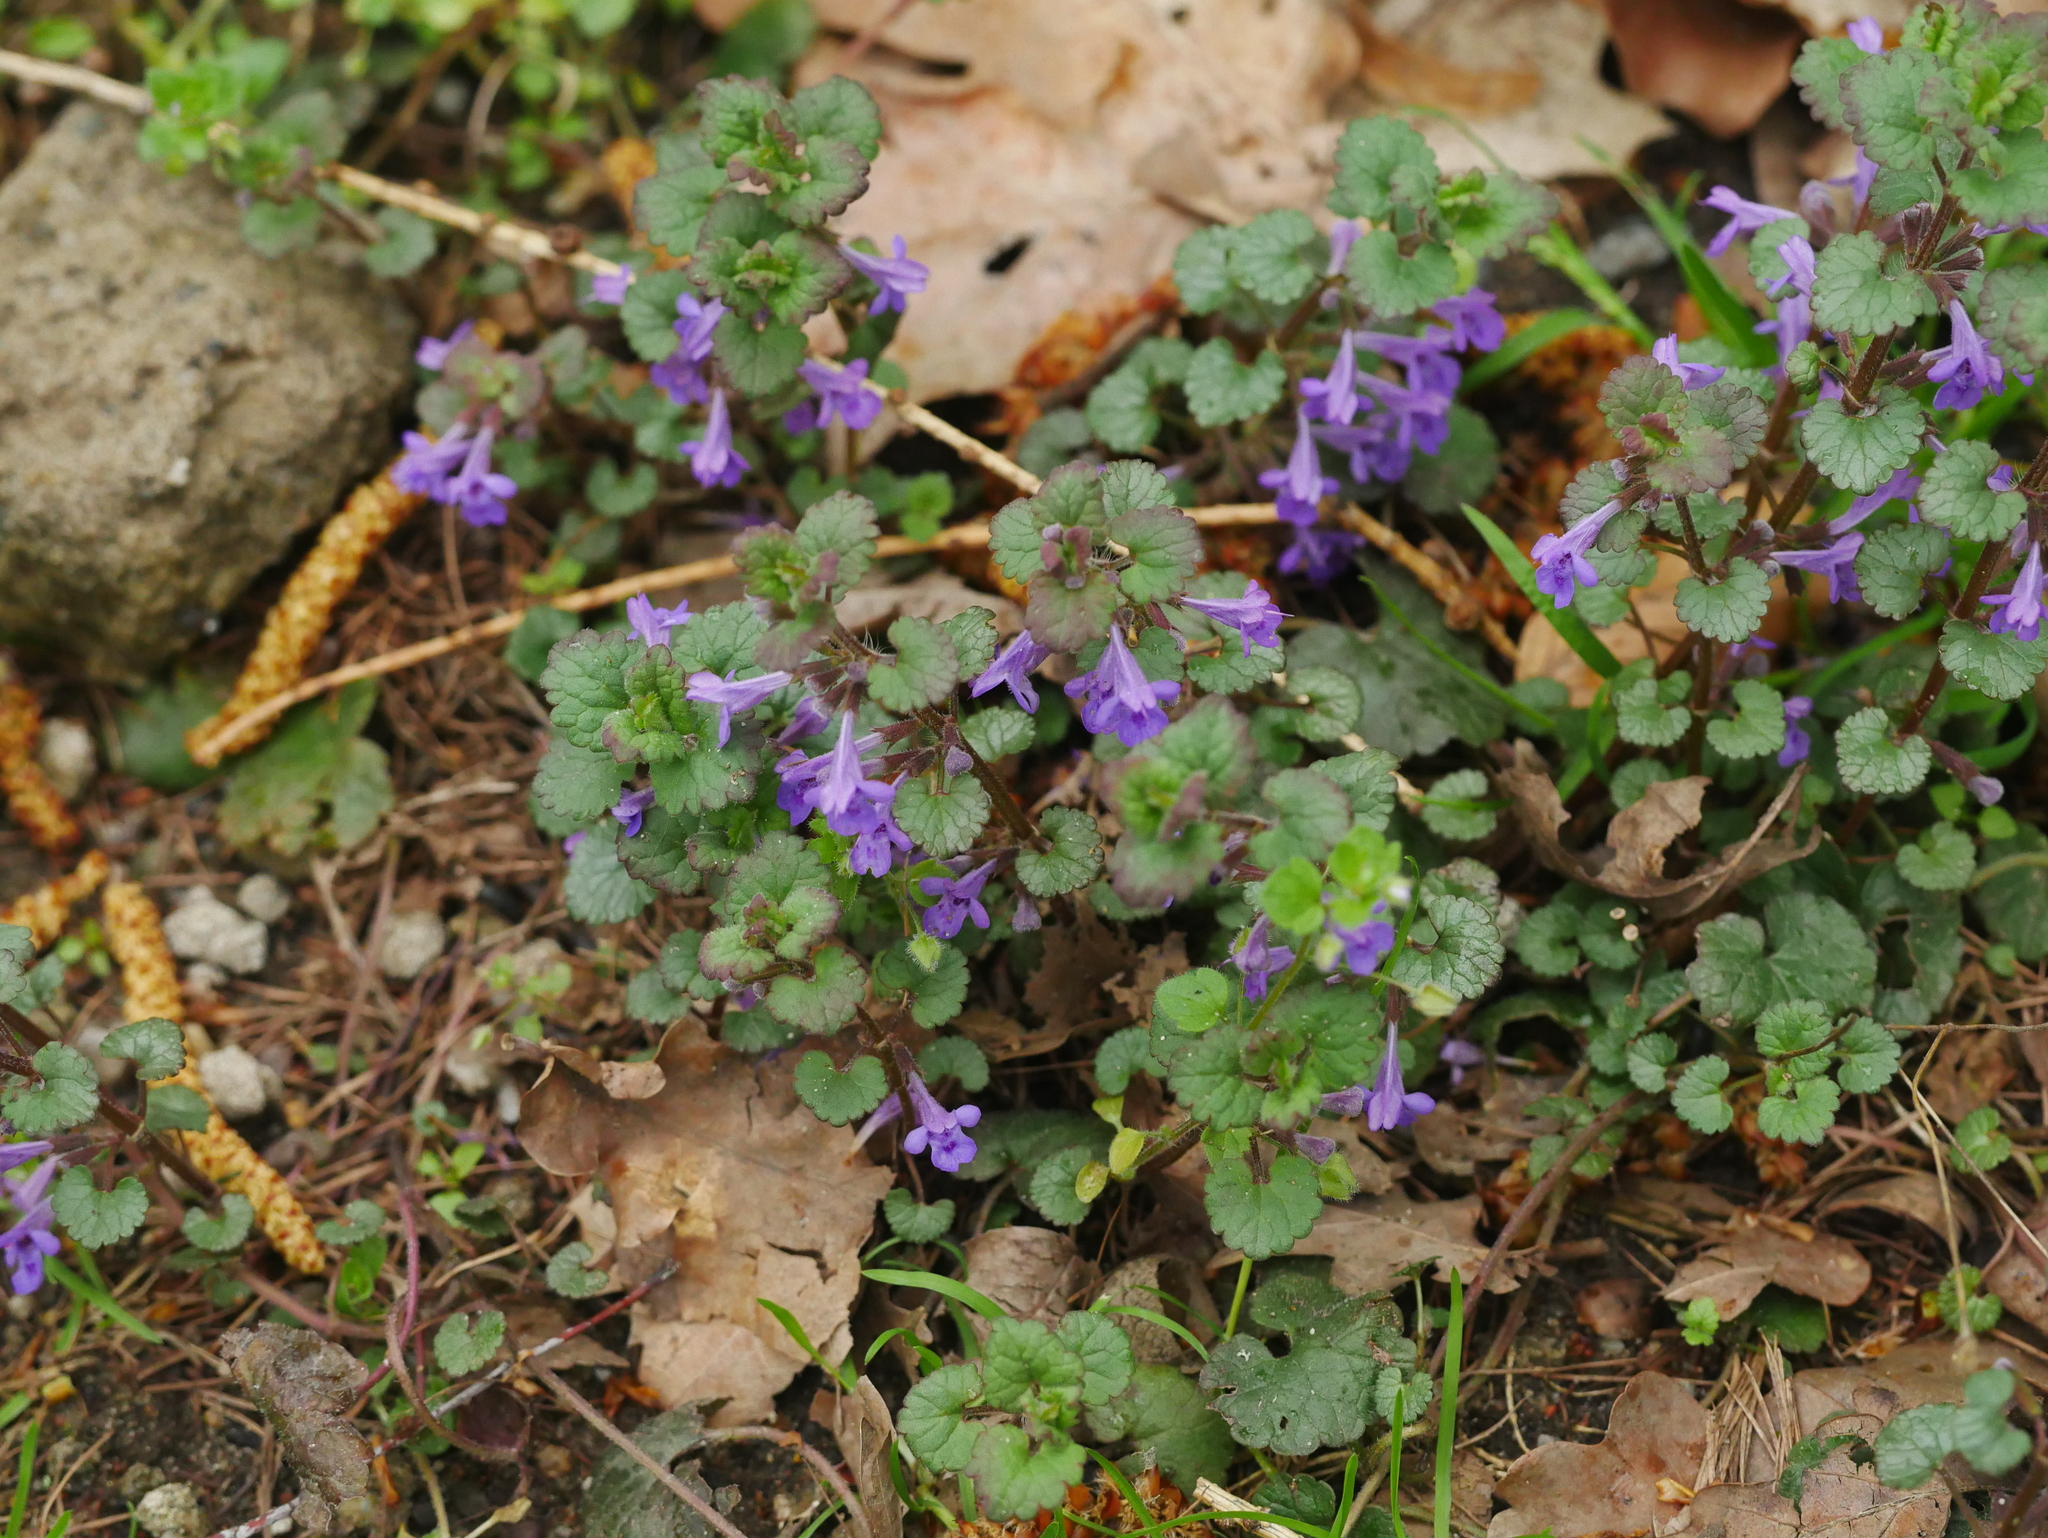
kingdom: Plantae
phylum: Tracheophyta
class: Magnoliopsida
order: Lamiales
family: Lamiaceae
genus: Glechoma
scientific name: Glechoma hederacea
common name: Ground ivy
